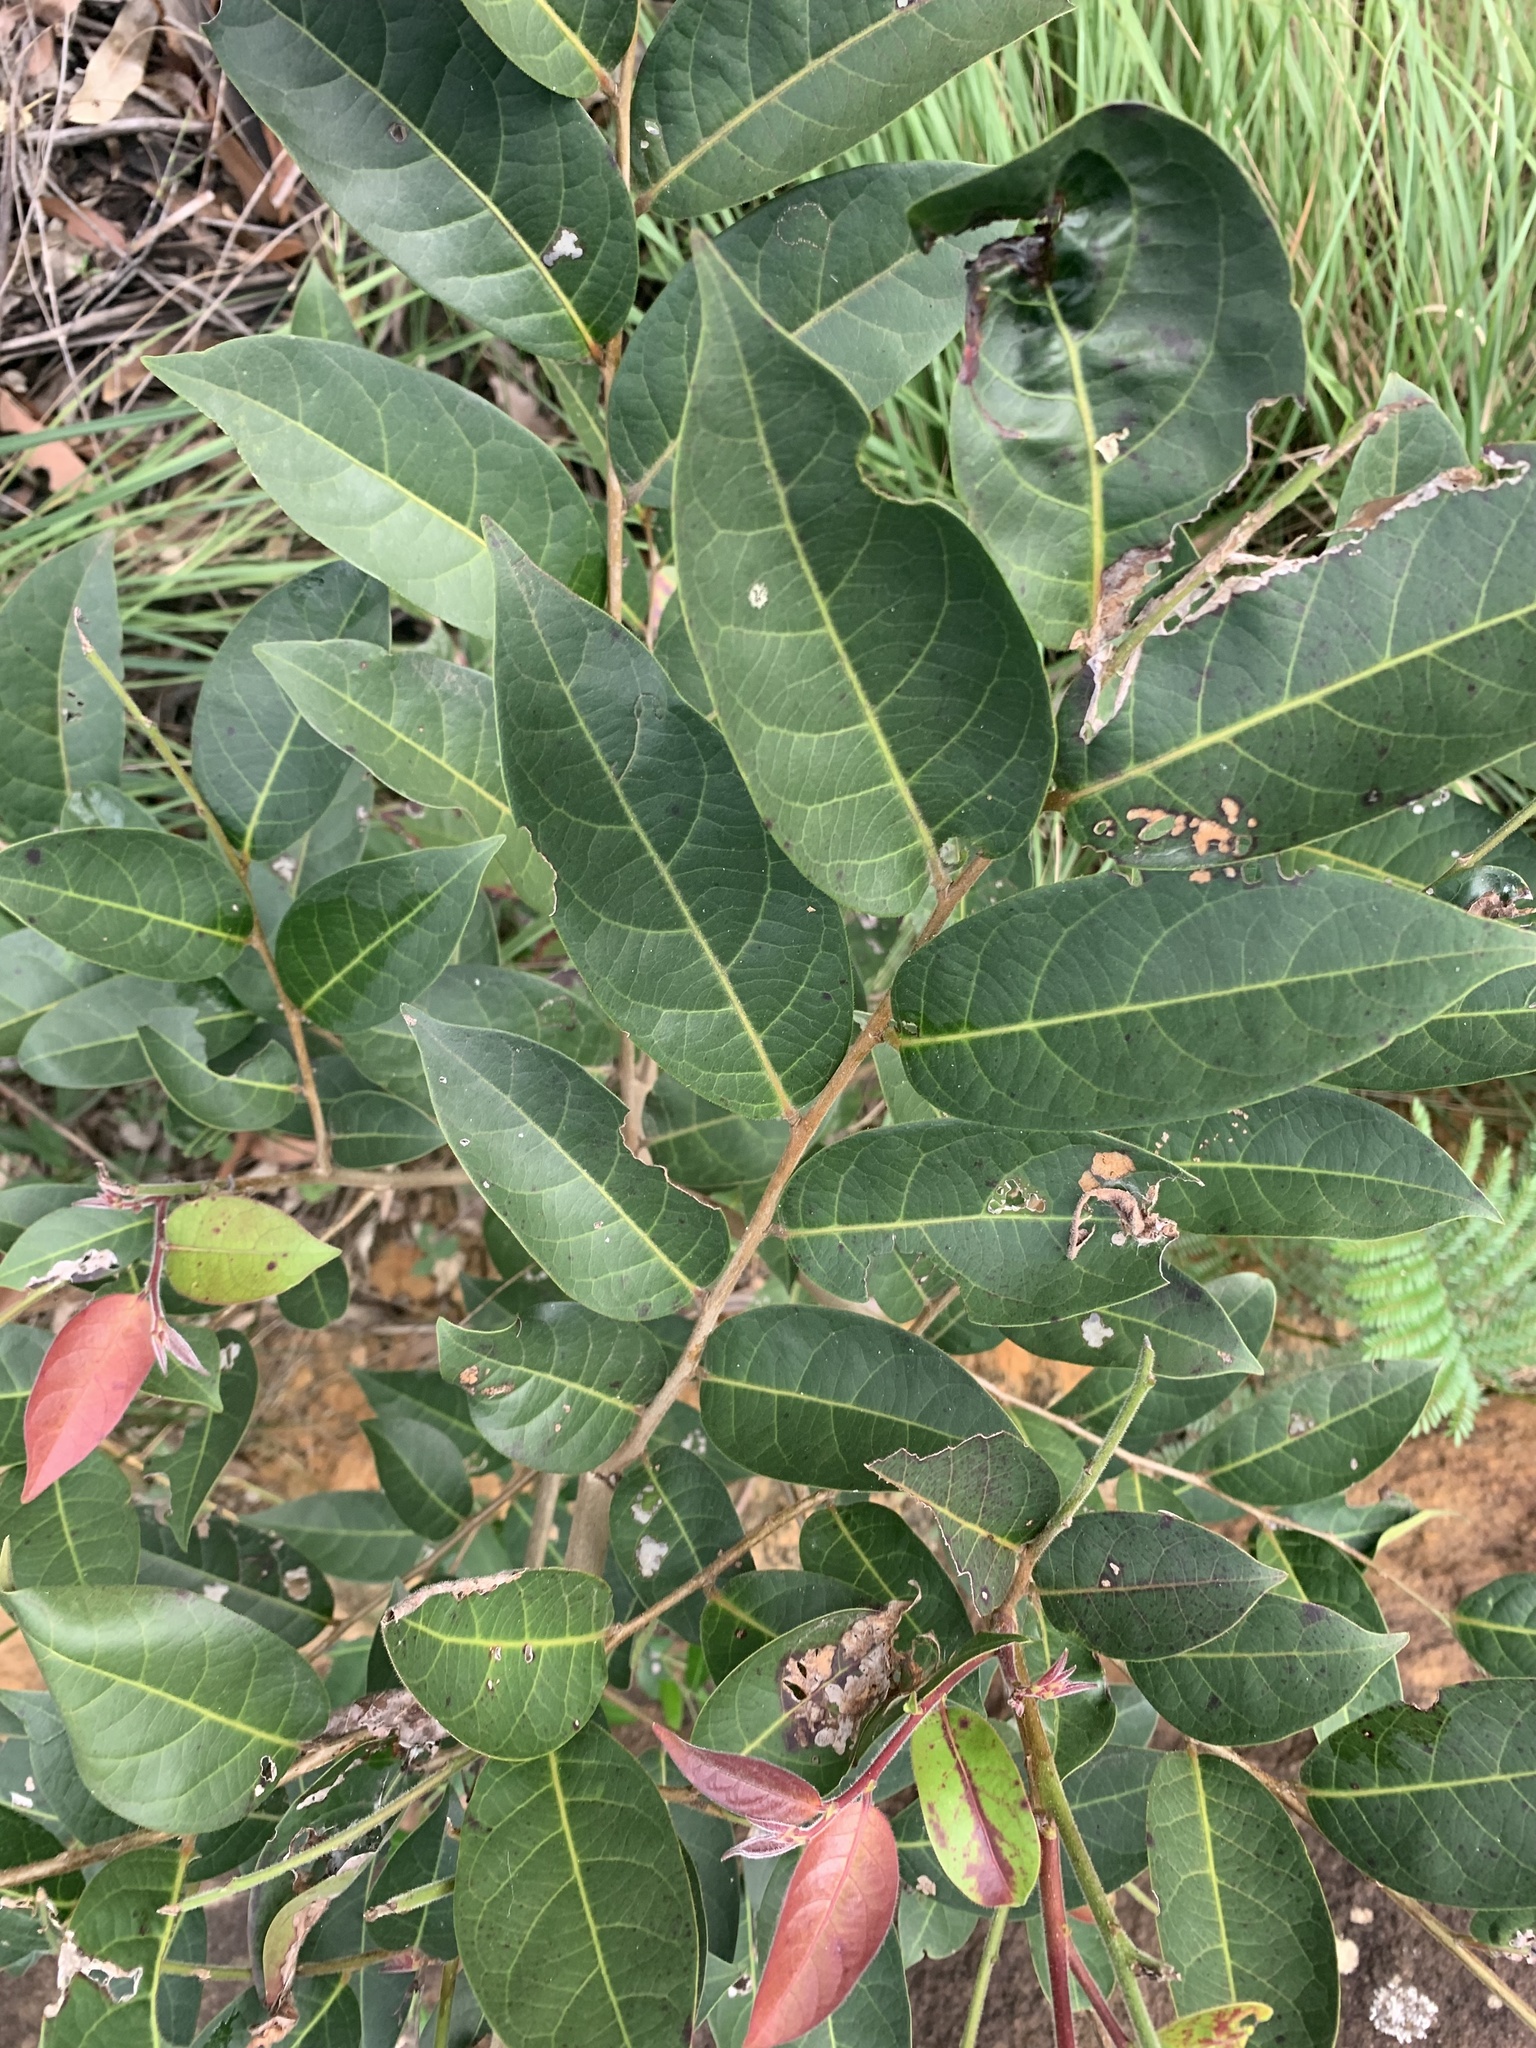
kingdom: Plantae
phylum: Tracheophyta
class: Magnoliopsida
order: Malpighiales
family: Phyllanthaceae
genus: Glochidion
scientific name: Glochidion ferdinandi
